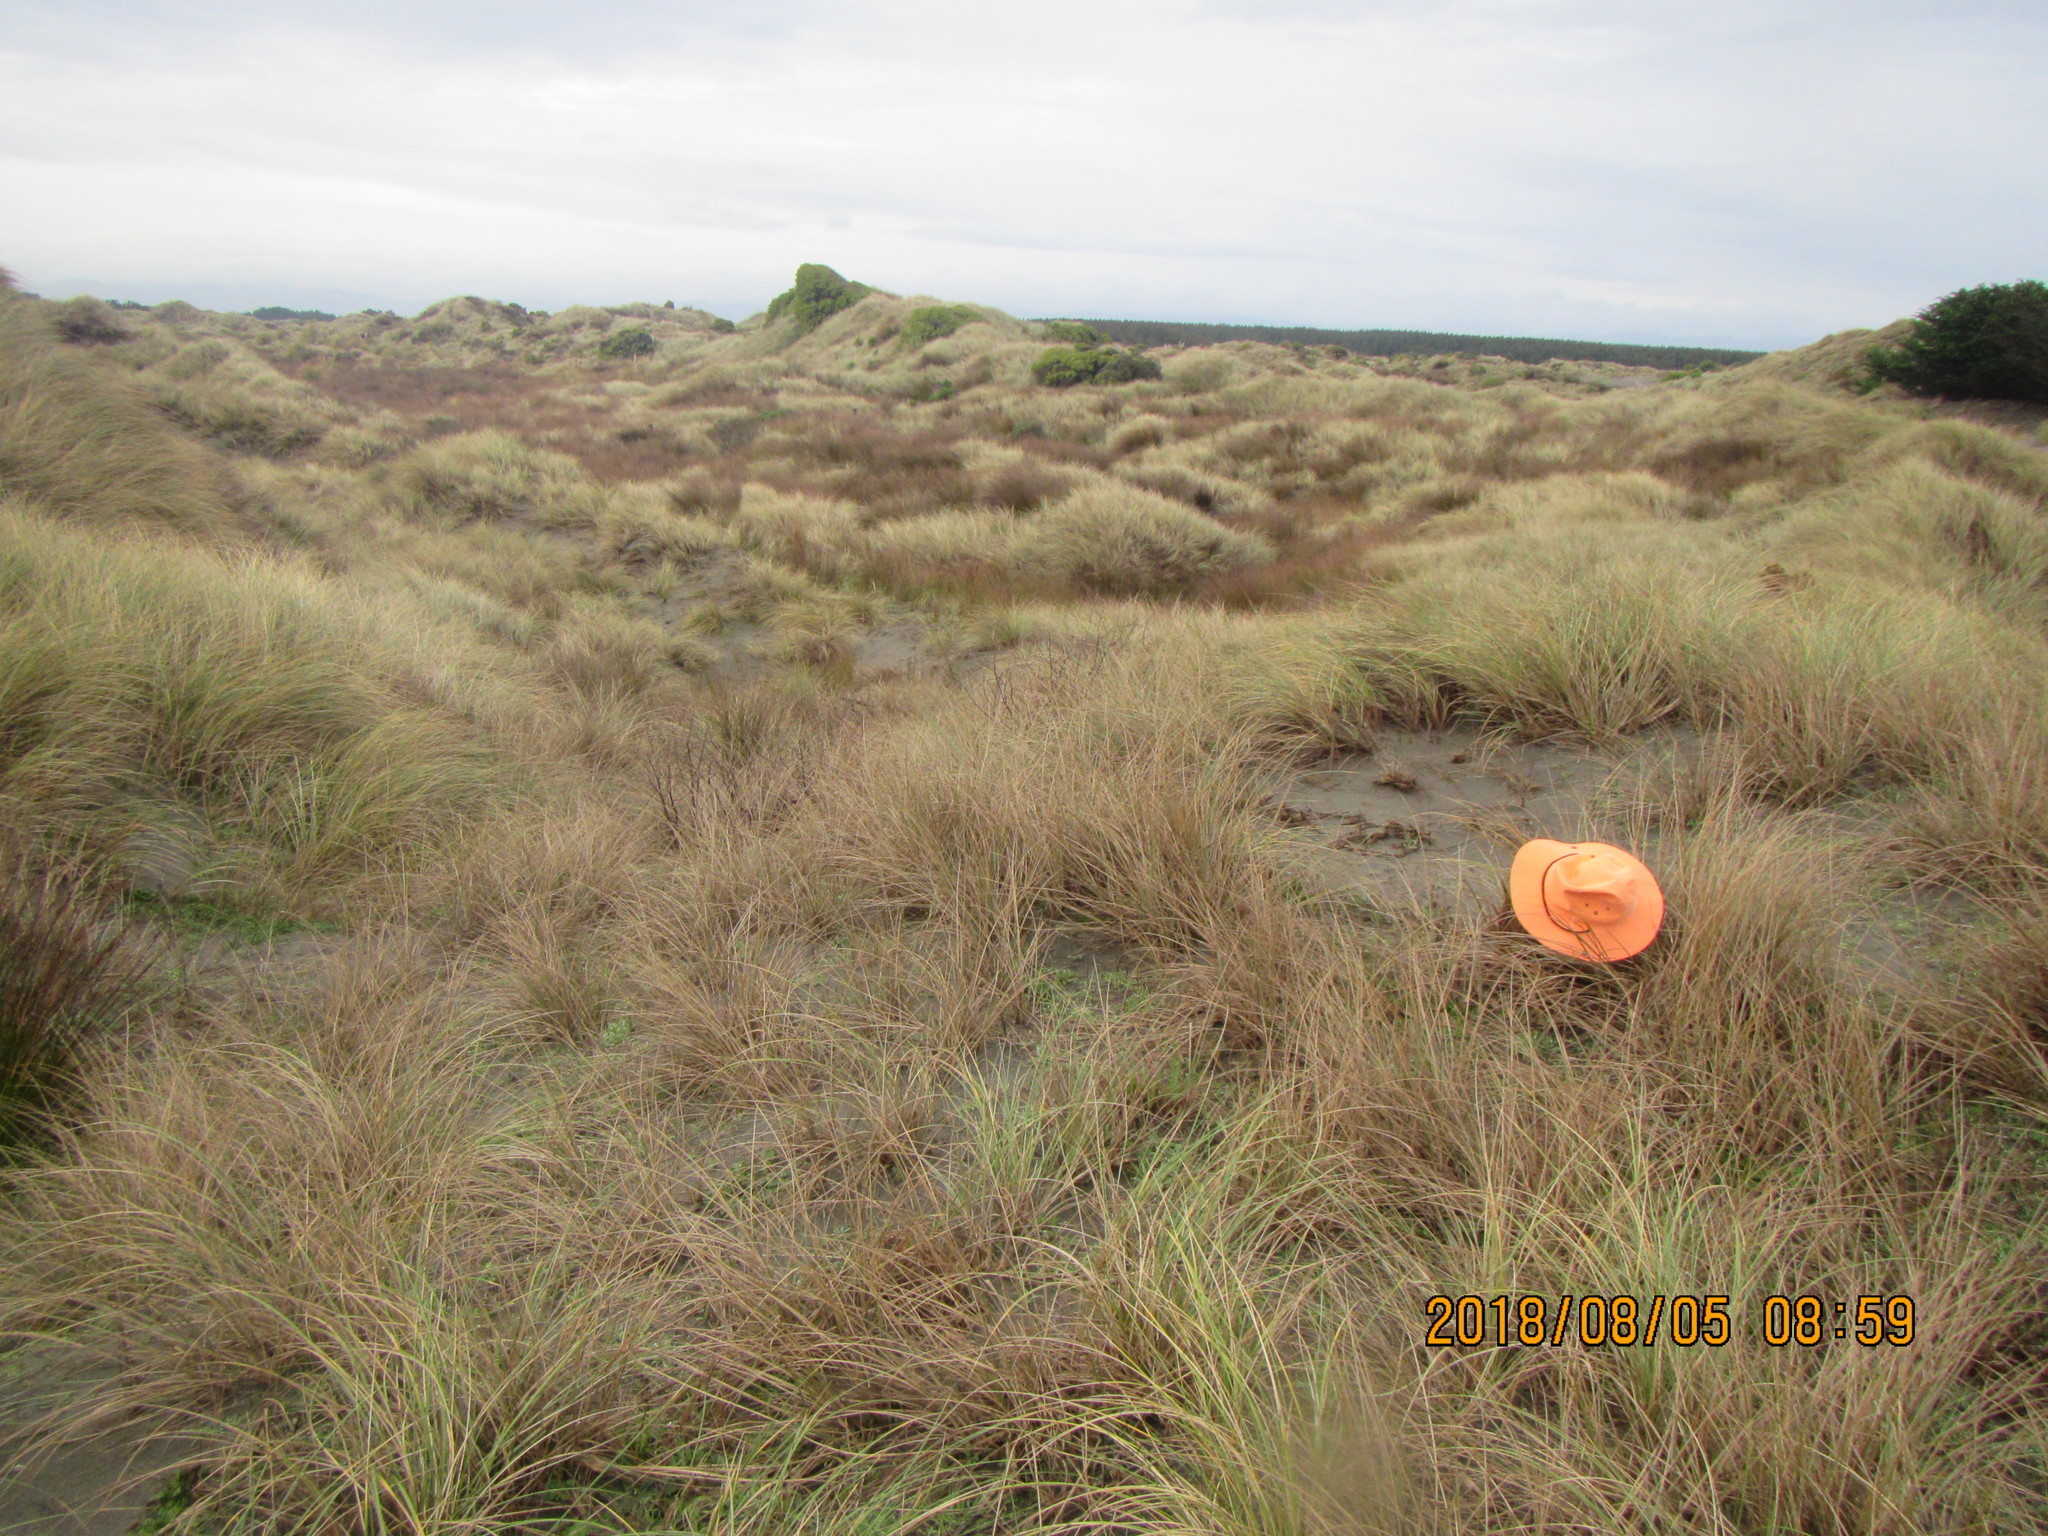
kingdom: Animalia
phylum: Arthropoda
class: Arachnida
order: Araneae
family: Thomisidae
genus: Sidymella
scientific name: Sidymella trapezia
